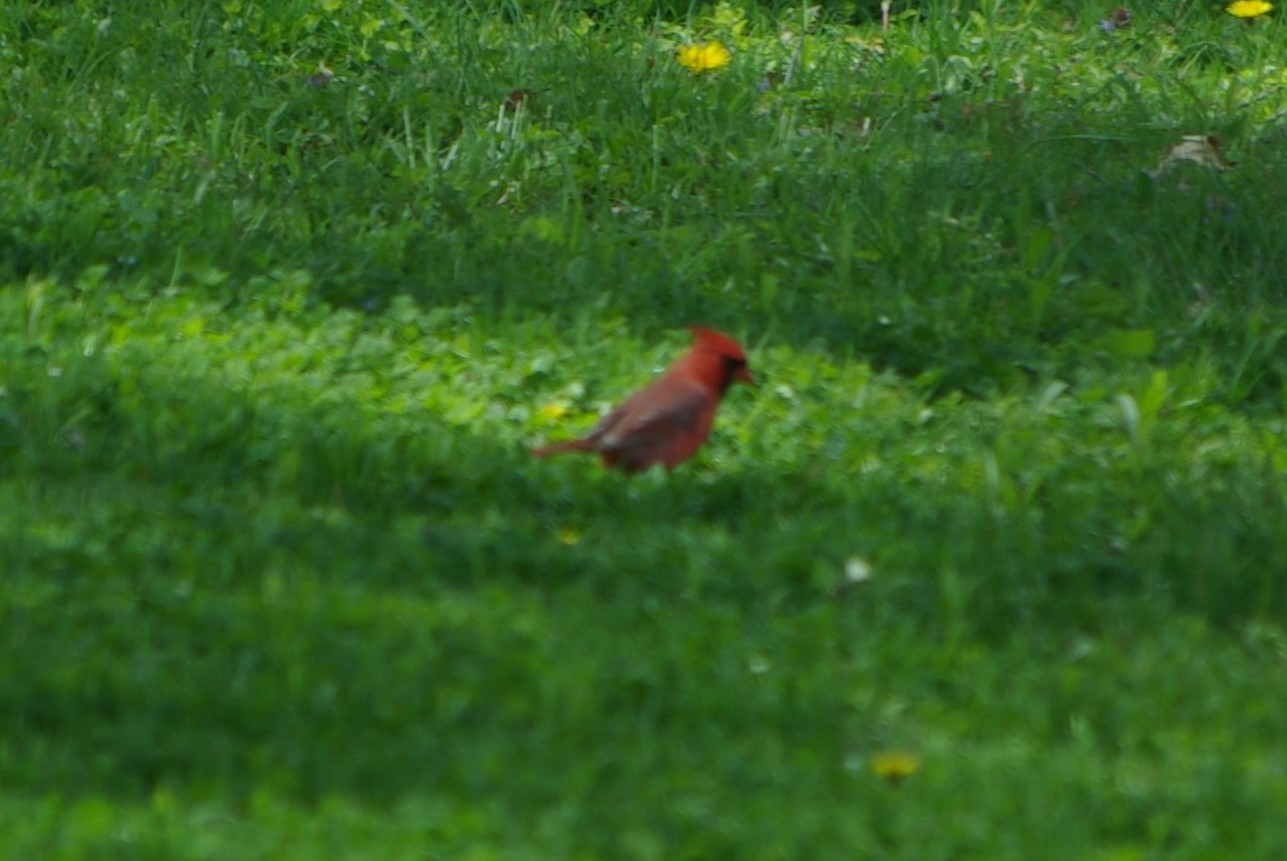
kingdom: Animalia
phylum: Chordata
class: Aves
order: Passeriformes
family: Cardinalidae
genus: Cardinalis
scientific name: Cardinalis cardinalis
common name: Northern cardinal
